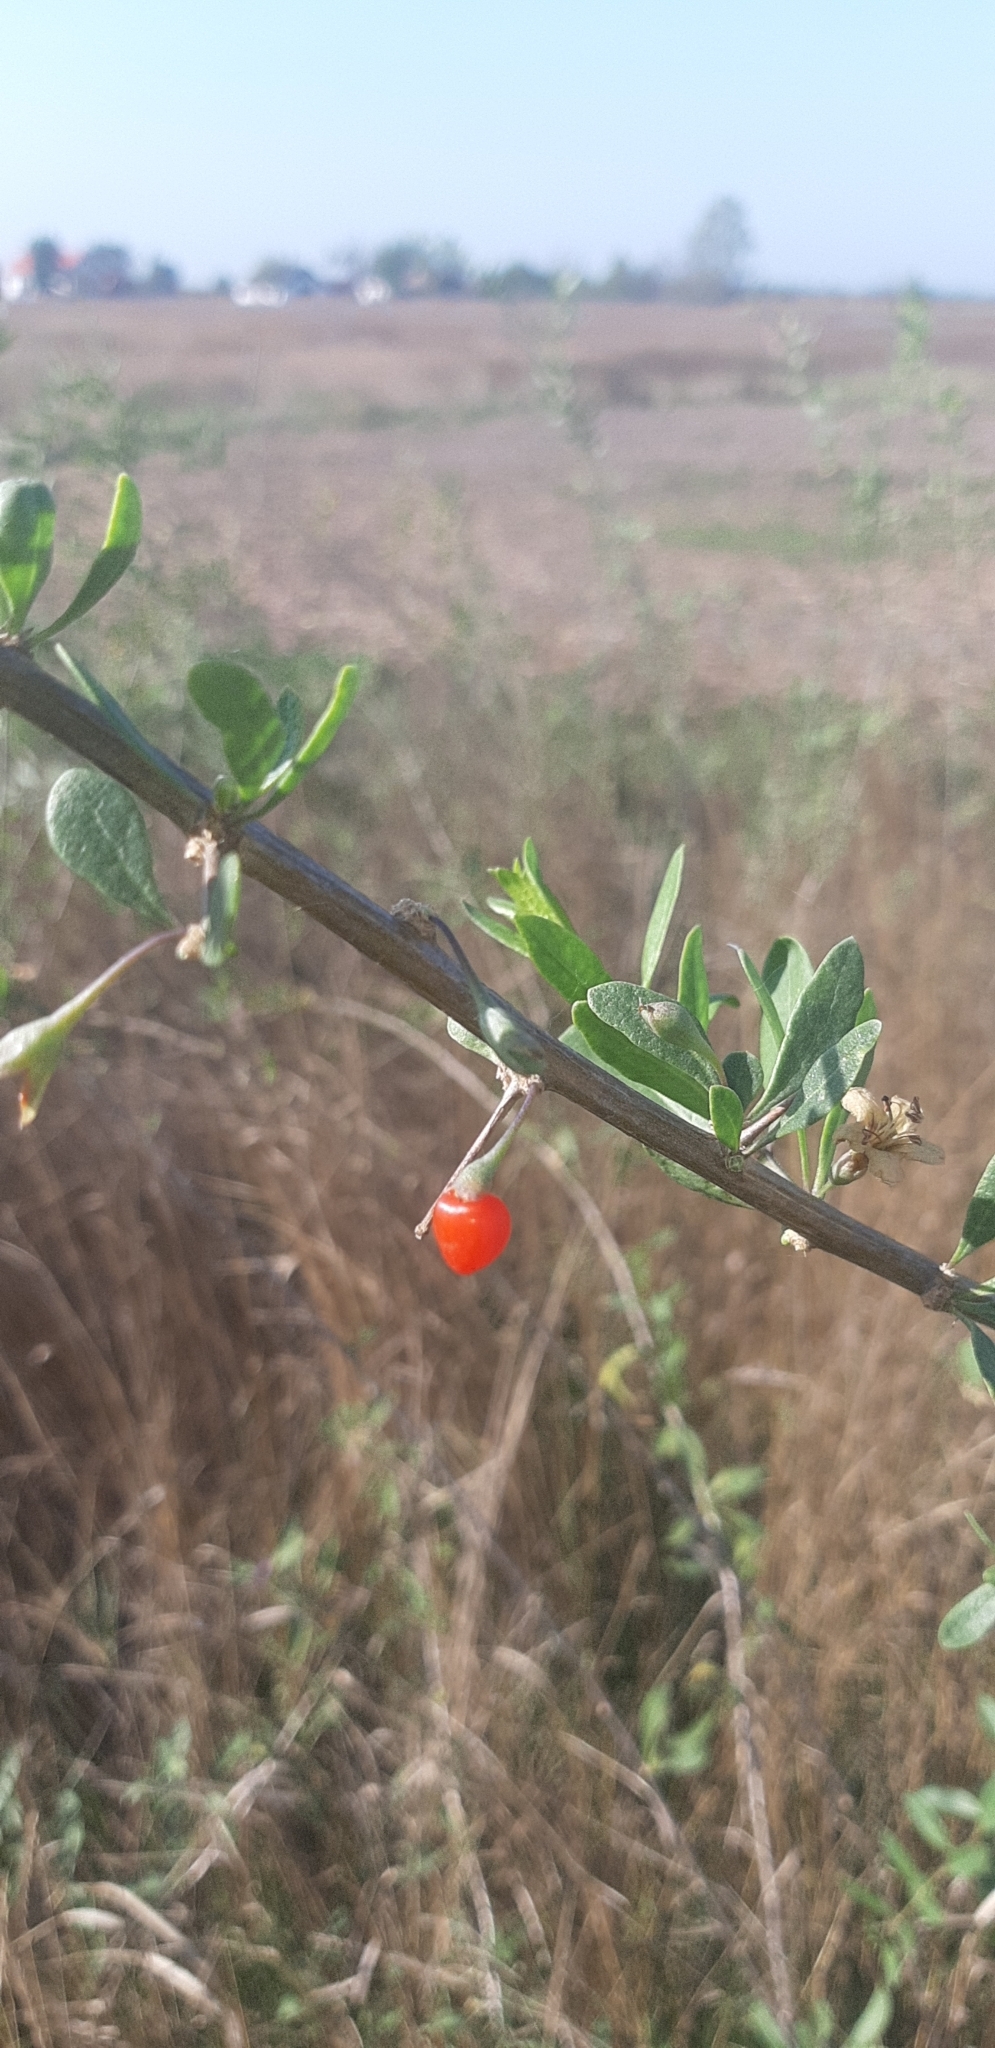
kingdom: Plantae
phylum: Tracheophyta
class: Magnoliopsida
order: Solanales
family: Solanaceae
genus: Lycium
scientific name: Lycium barbarum
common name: Duke of argyll's teaplant
